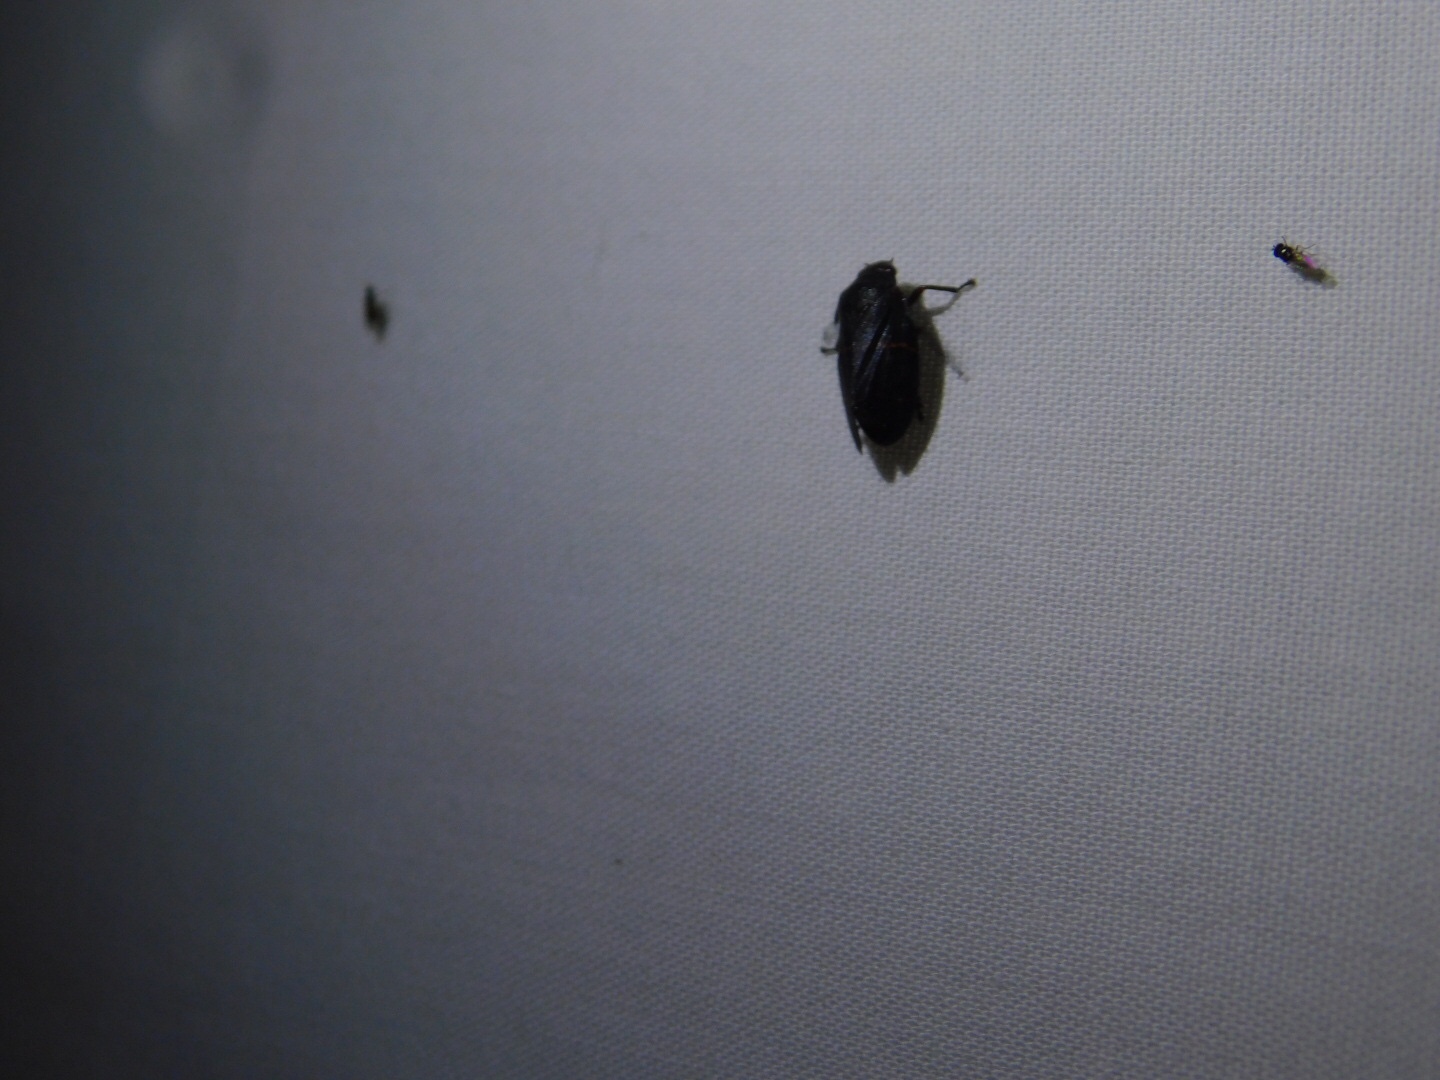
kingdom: Animalia
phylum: Arthropoda
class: Insecta
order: Hemiptera
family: Cercopidae
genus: Prosapia
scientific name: Prosapia bicincta
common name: Twolined spittlebug
